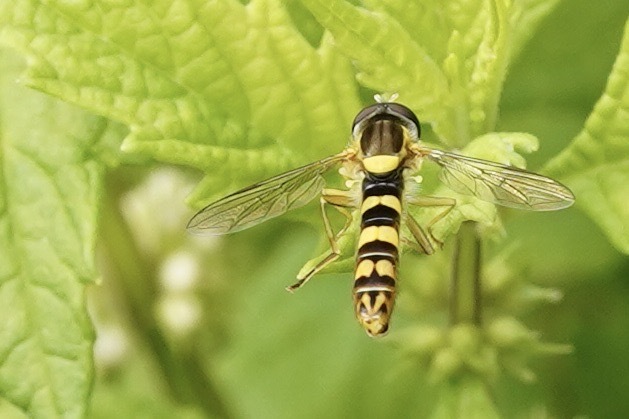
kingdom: Animalia
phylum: Arthropoda
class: Insecta
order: Diptera
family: Syrphidae
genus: Sphaerophoria
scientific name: Sphaerophoria scripta
